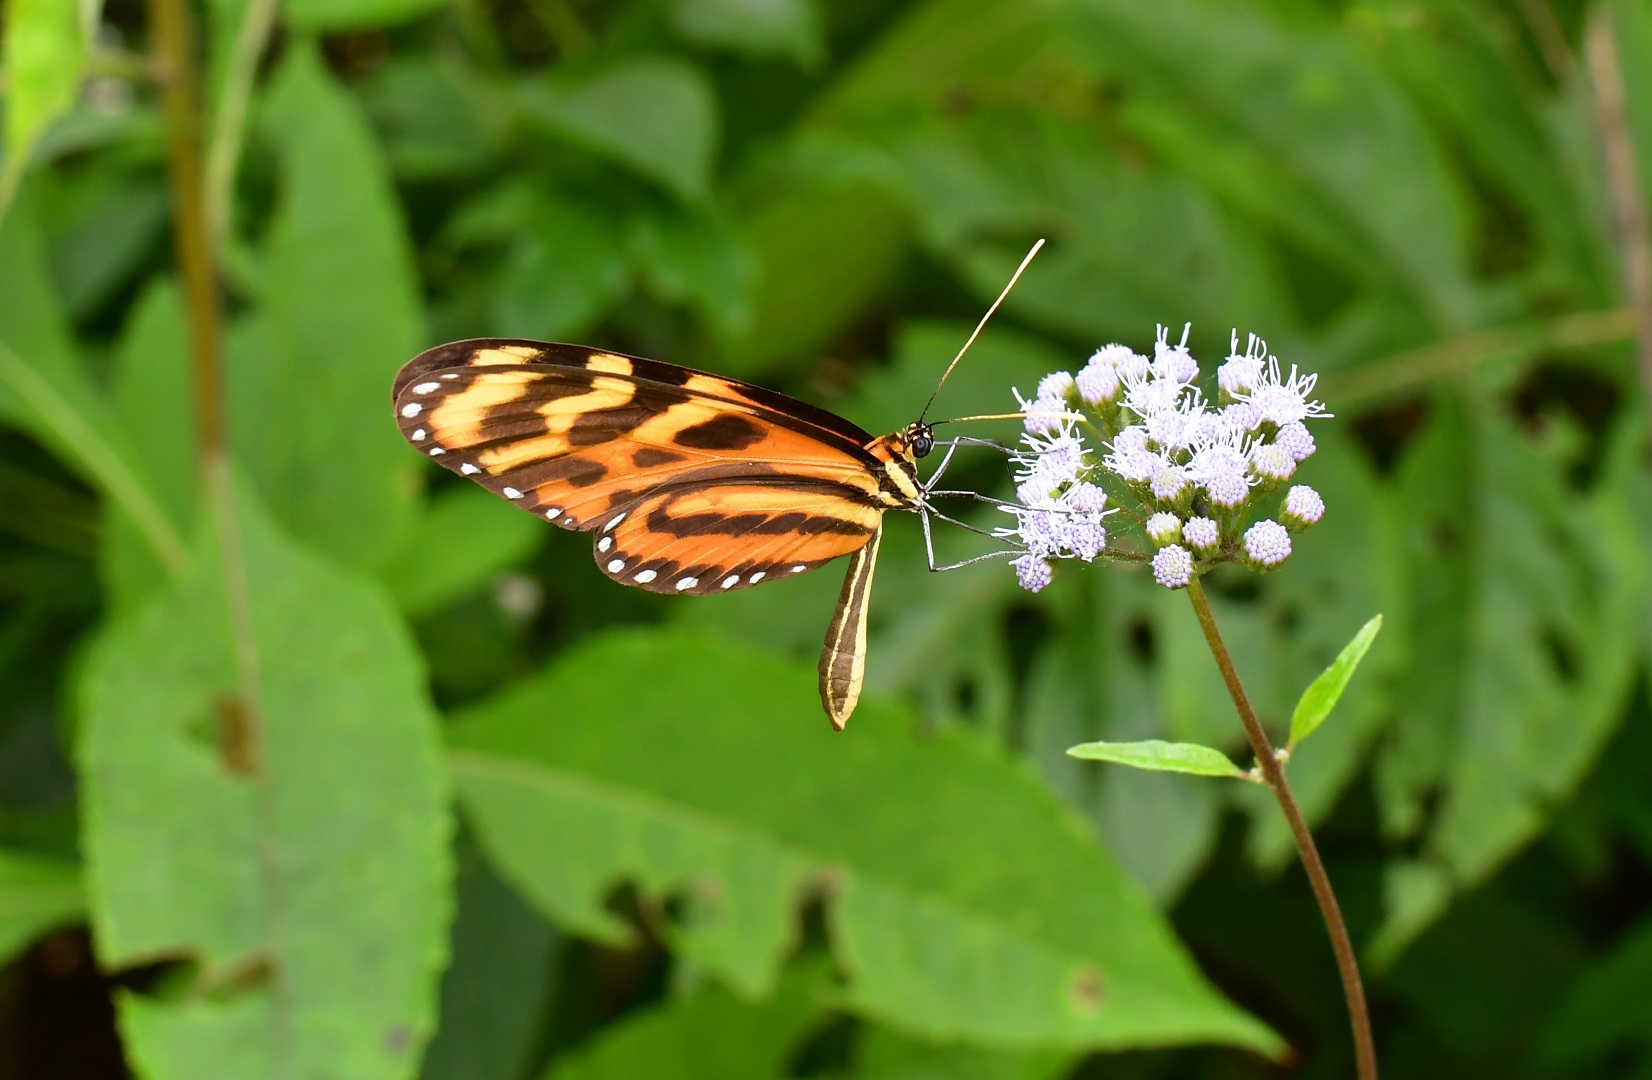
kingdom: Animalia
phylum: Arthropoda
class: Insecta
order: Lepidoptera
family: Nymphalidae
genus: Mechanitis
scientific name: Mechanitis lysimnia
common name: Lysimnia tigerwing
